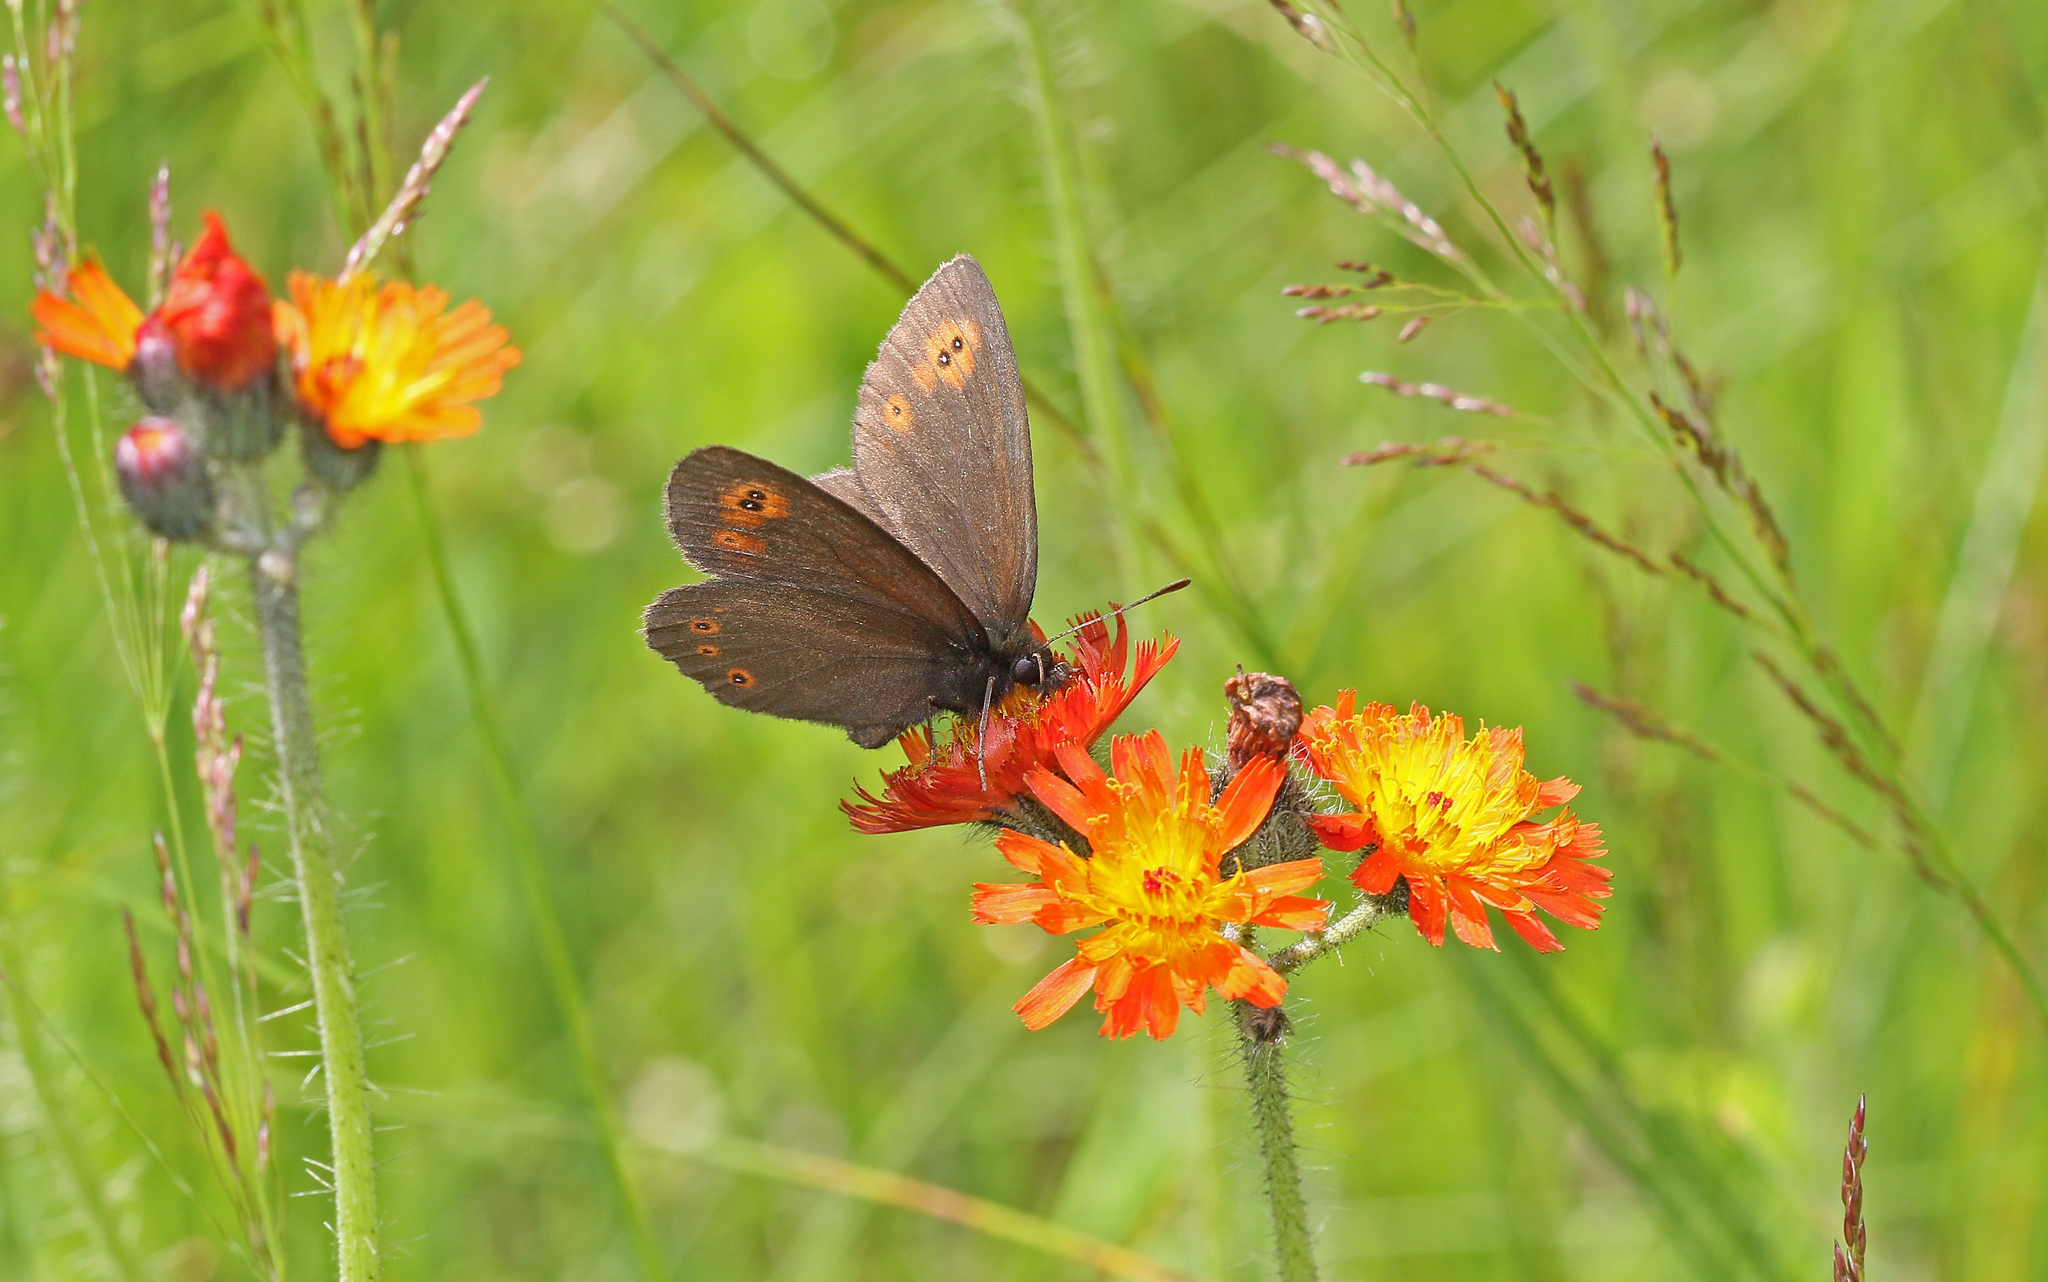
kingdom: Animalia
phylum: Arthropoda
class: Insecta
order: Lepidoptera
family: Nymphalidae
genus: Erebia
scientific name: Erebia medusa
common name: Woodland ringlet
